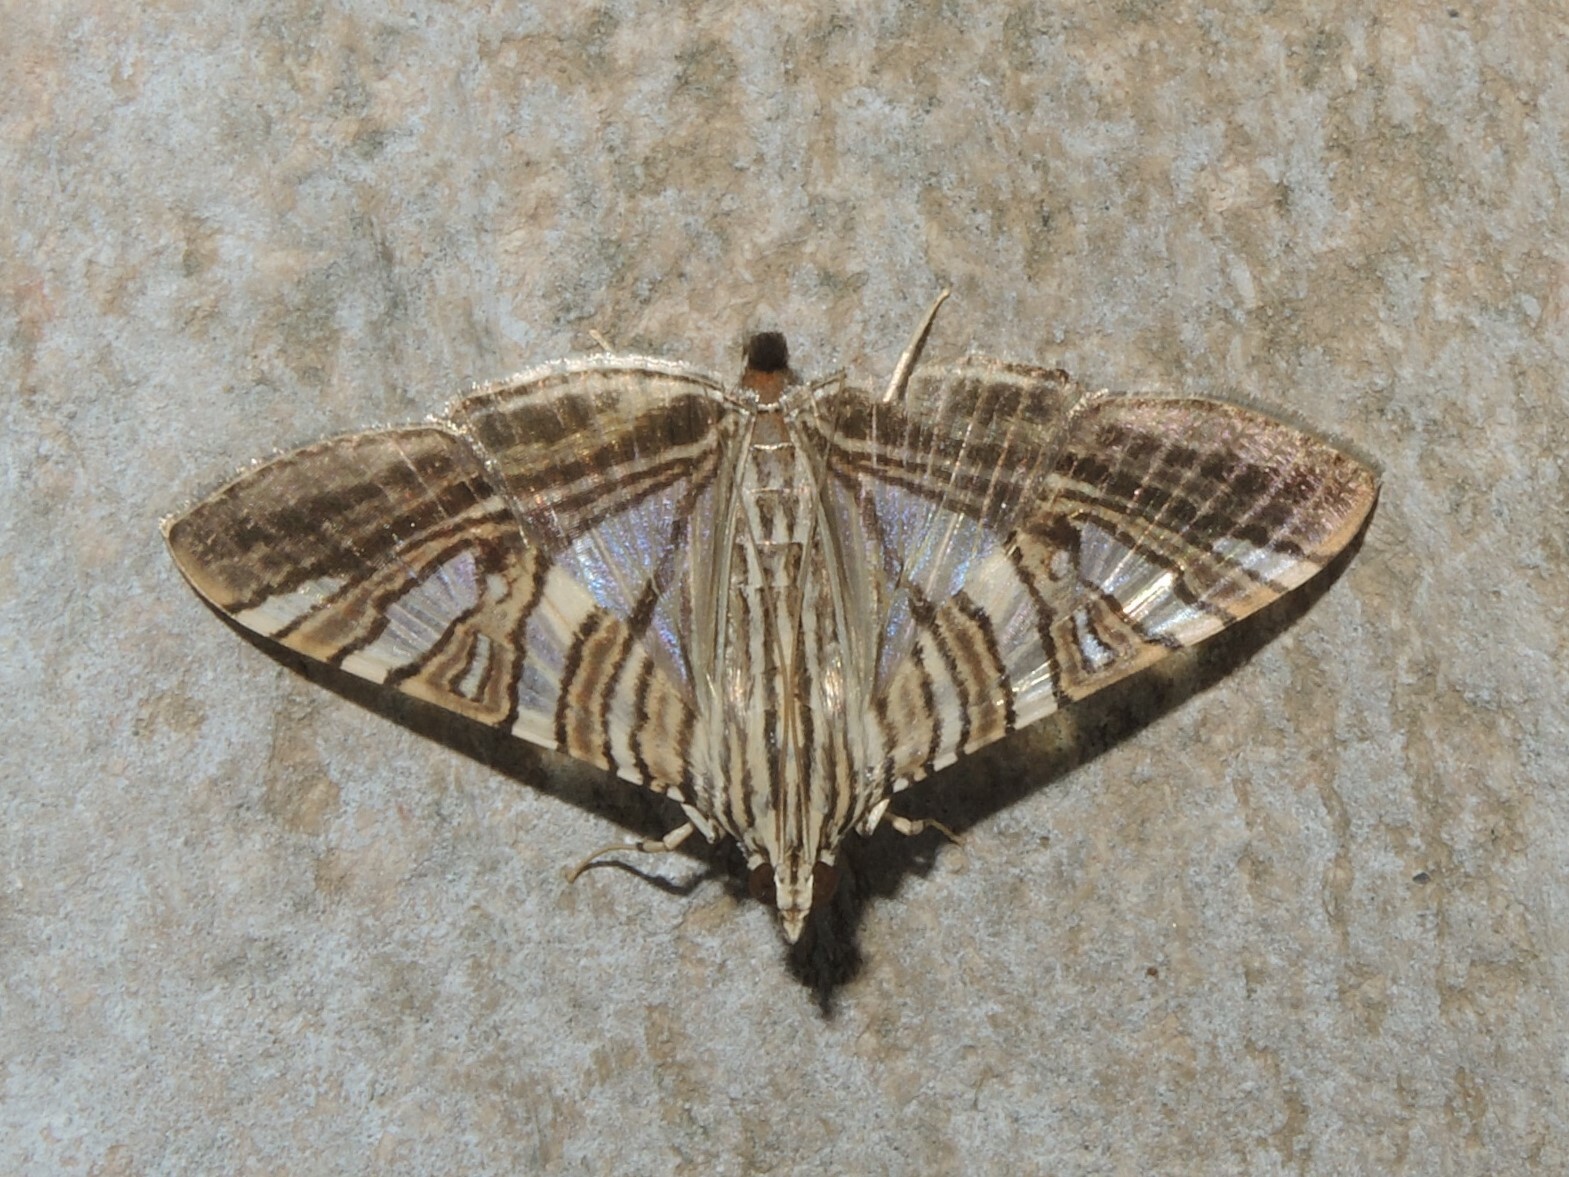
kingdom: Animalia
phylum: Arthropoda
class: Insecta
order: Lepidoptera
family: Crambidae
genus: Glyphodes
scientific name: Glyphodes stolalis
